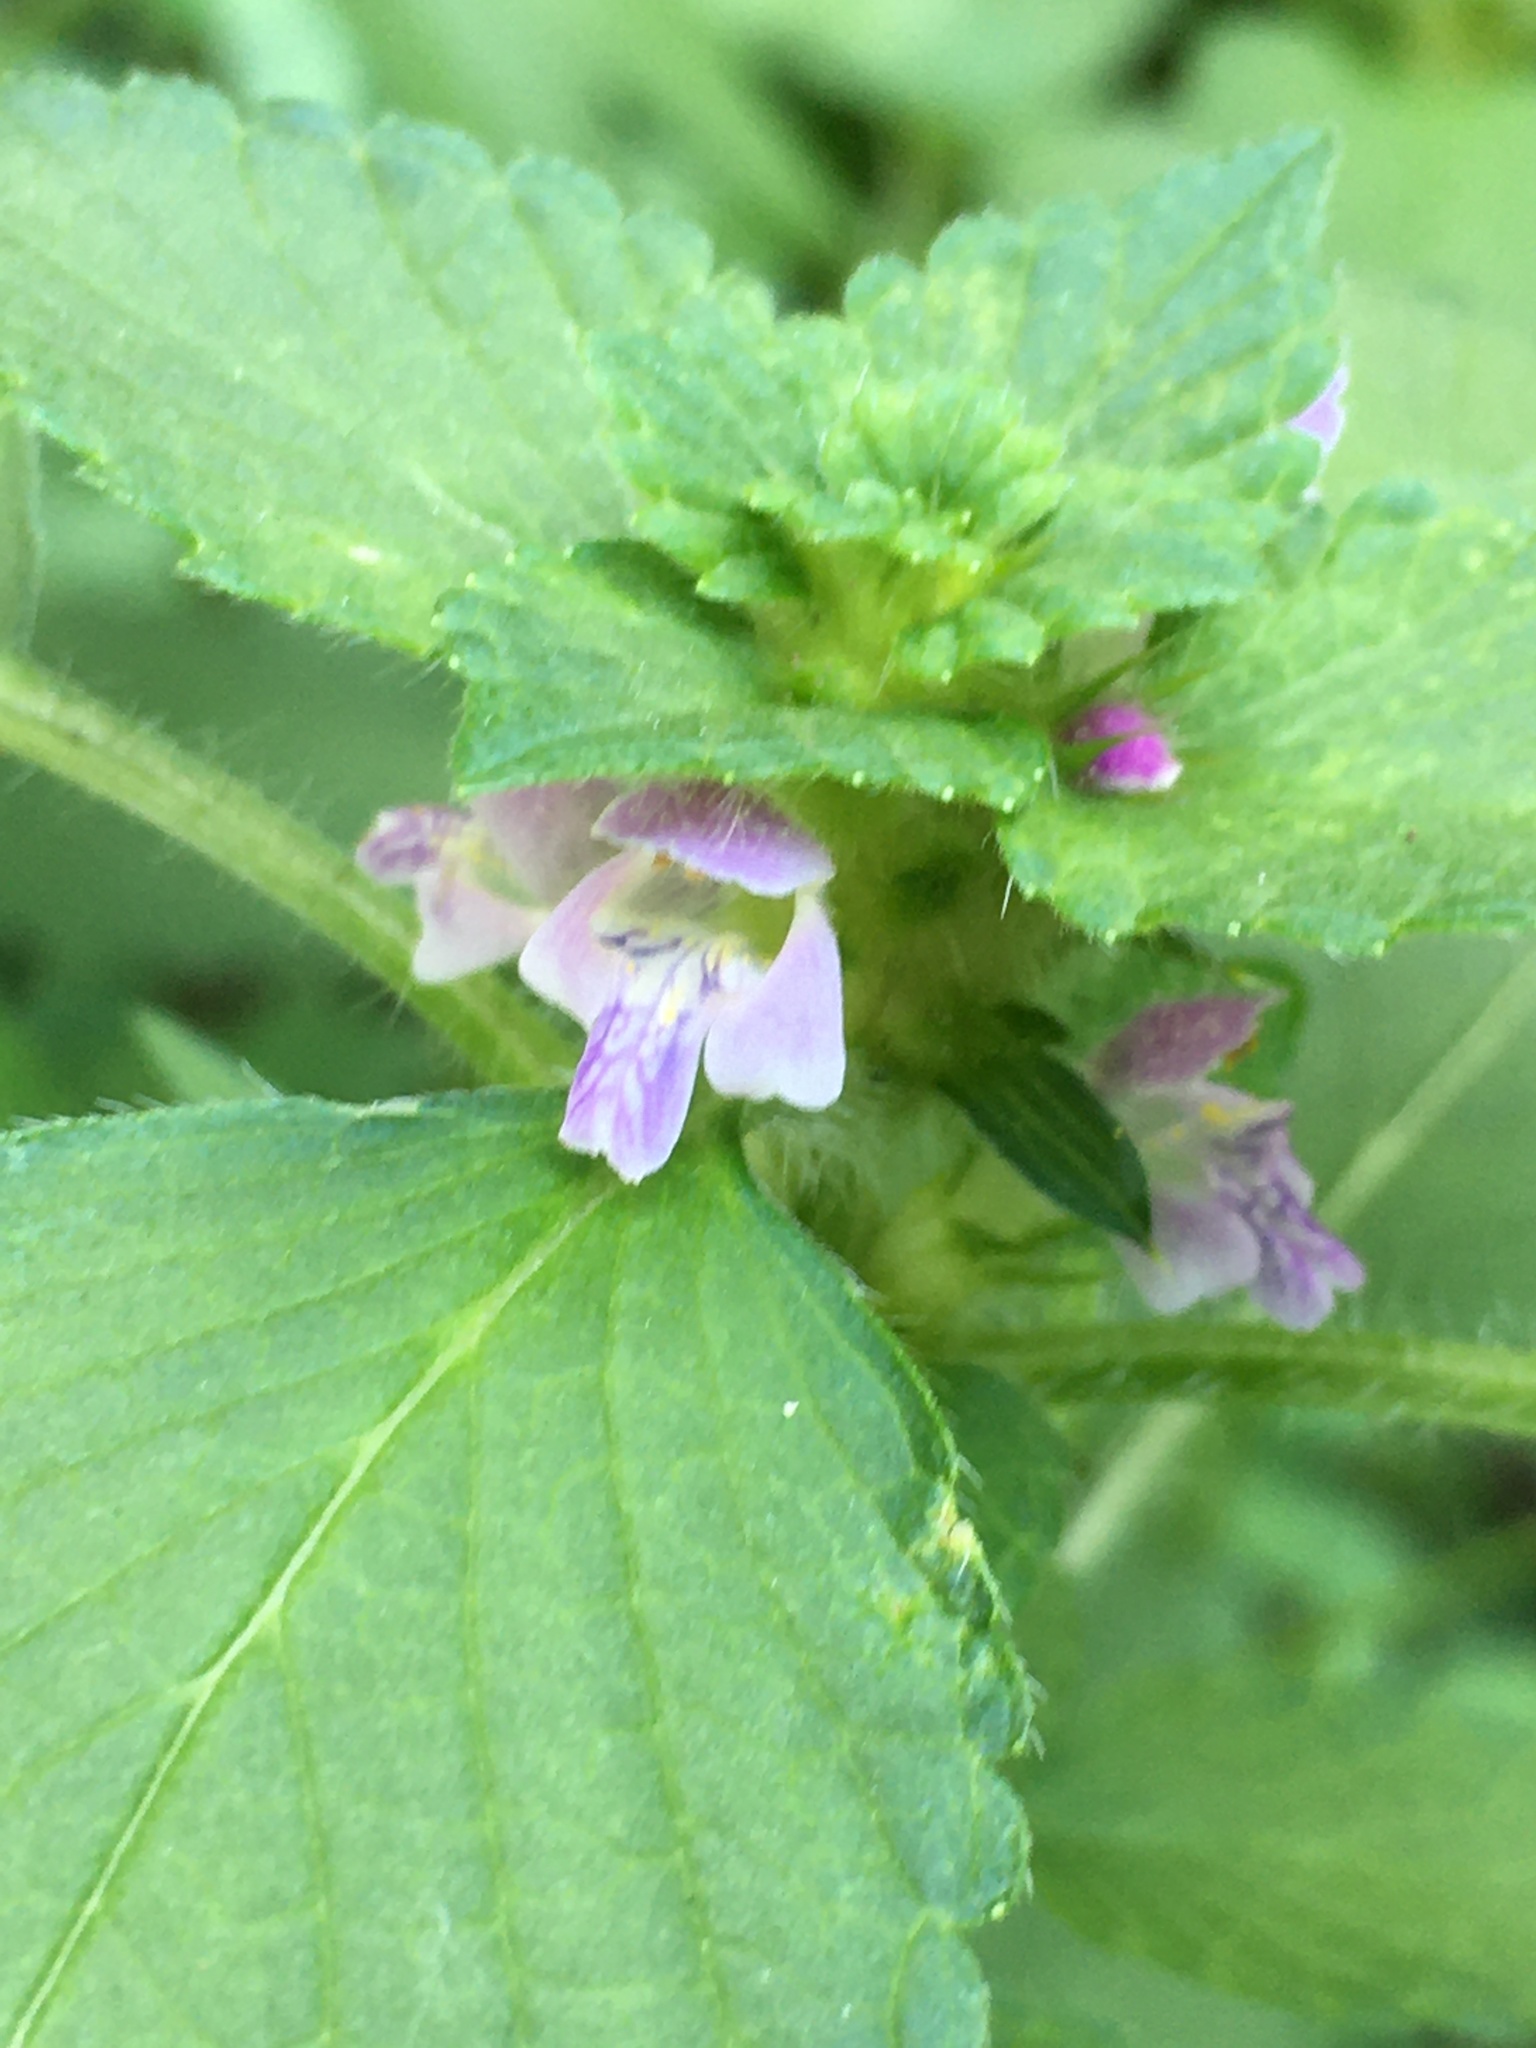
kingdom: Plantae
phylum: Tracheophyta
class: Magnoliopsida
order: Lamiales
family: Lamiaceae
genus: Galeopsis
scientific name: Galeopsis tetrahit
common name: Common hemp-nettle
